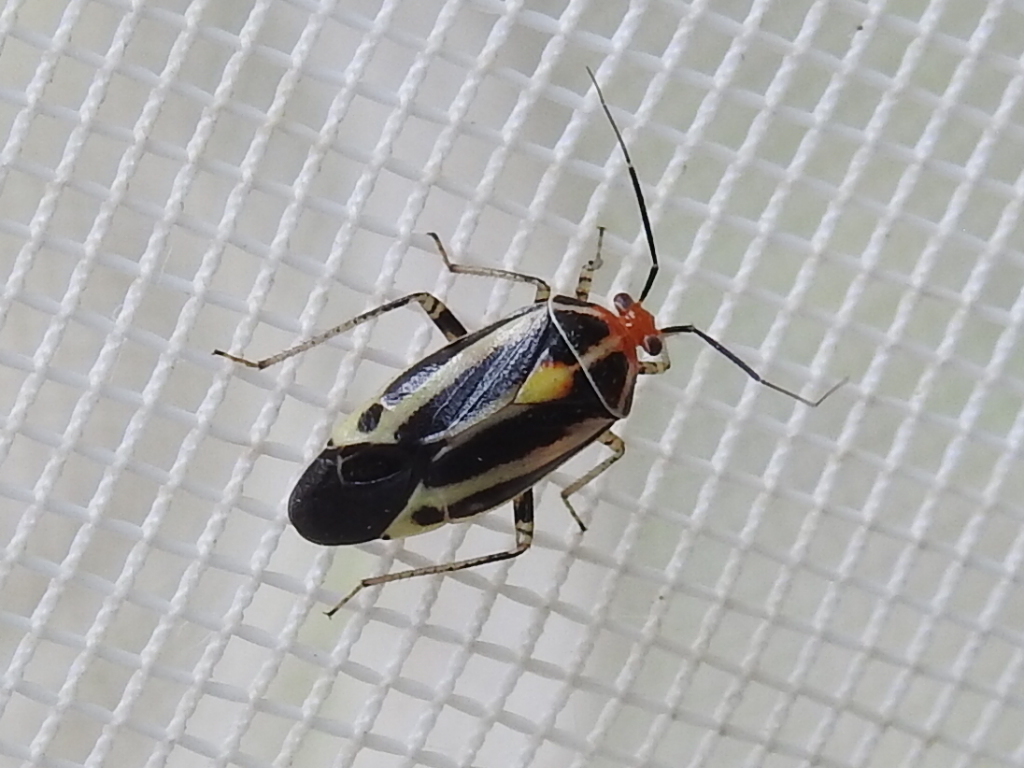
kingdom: Animalia
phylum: Arthropoda
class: Insecta
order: Hemiptera
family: Miridae
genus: Poecilocapsus
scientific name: Poecilocapsus lineatus
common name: Four-lined plant bug
